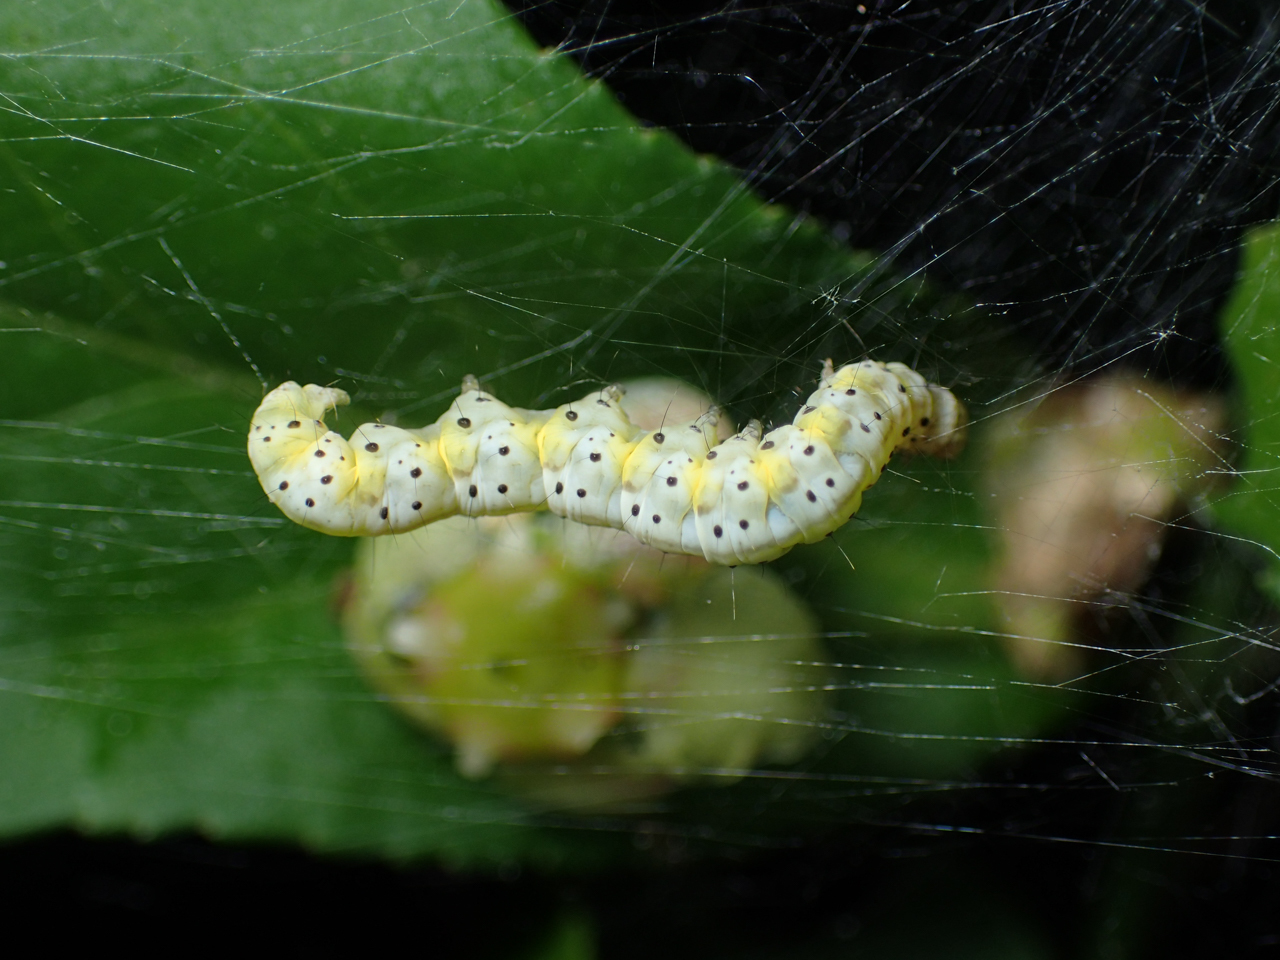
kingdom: Animalia
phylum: Arthropoda
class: Insecta
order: Lepidoptera
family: Yponomeutidae
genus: Yponomeuta
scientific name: Yponomeuta multipunctella
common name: American ermine moth
